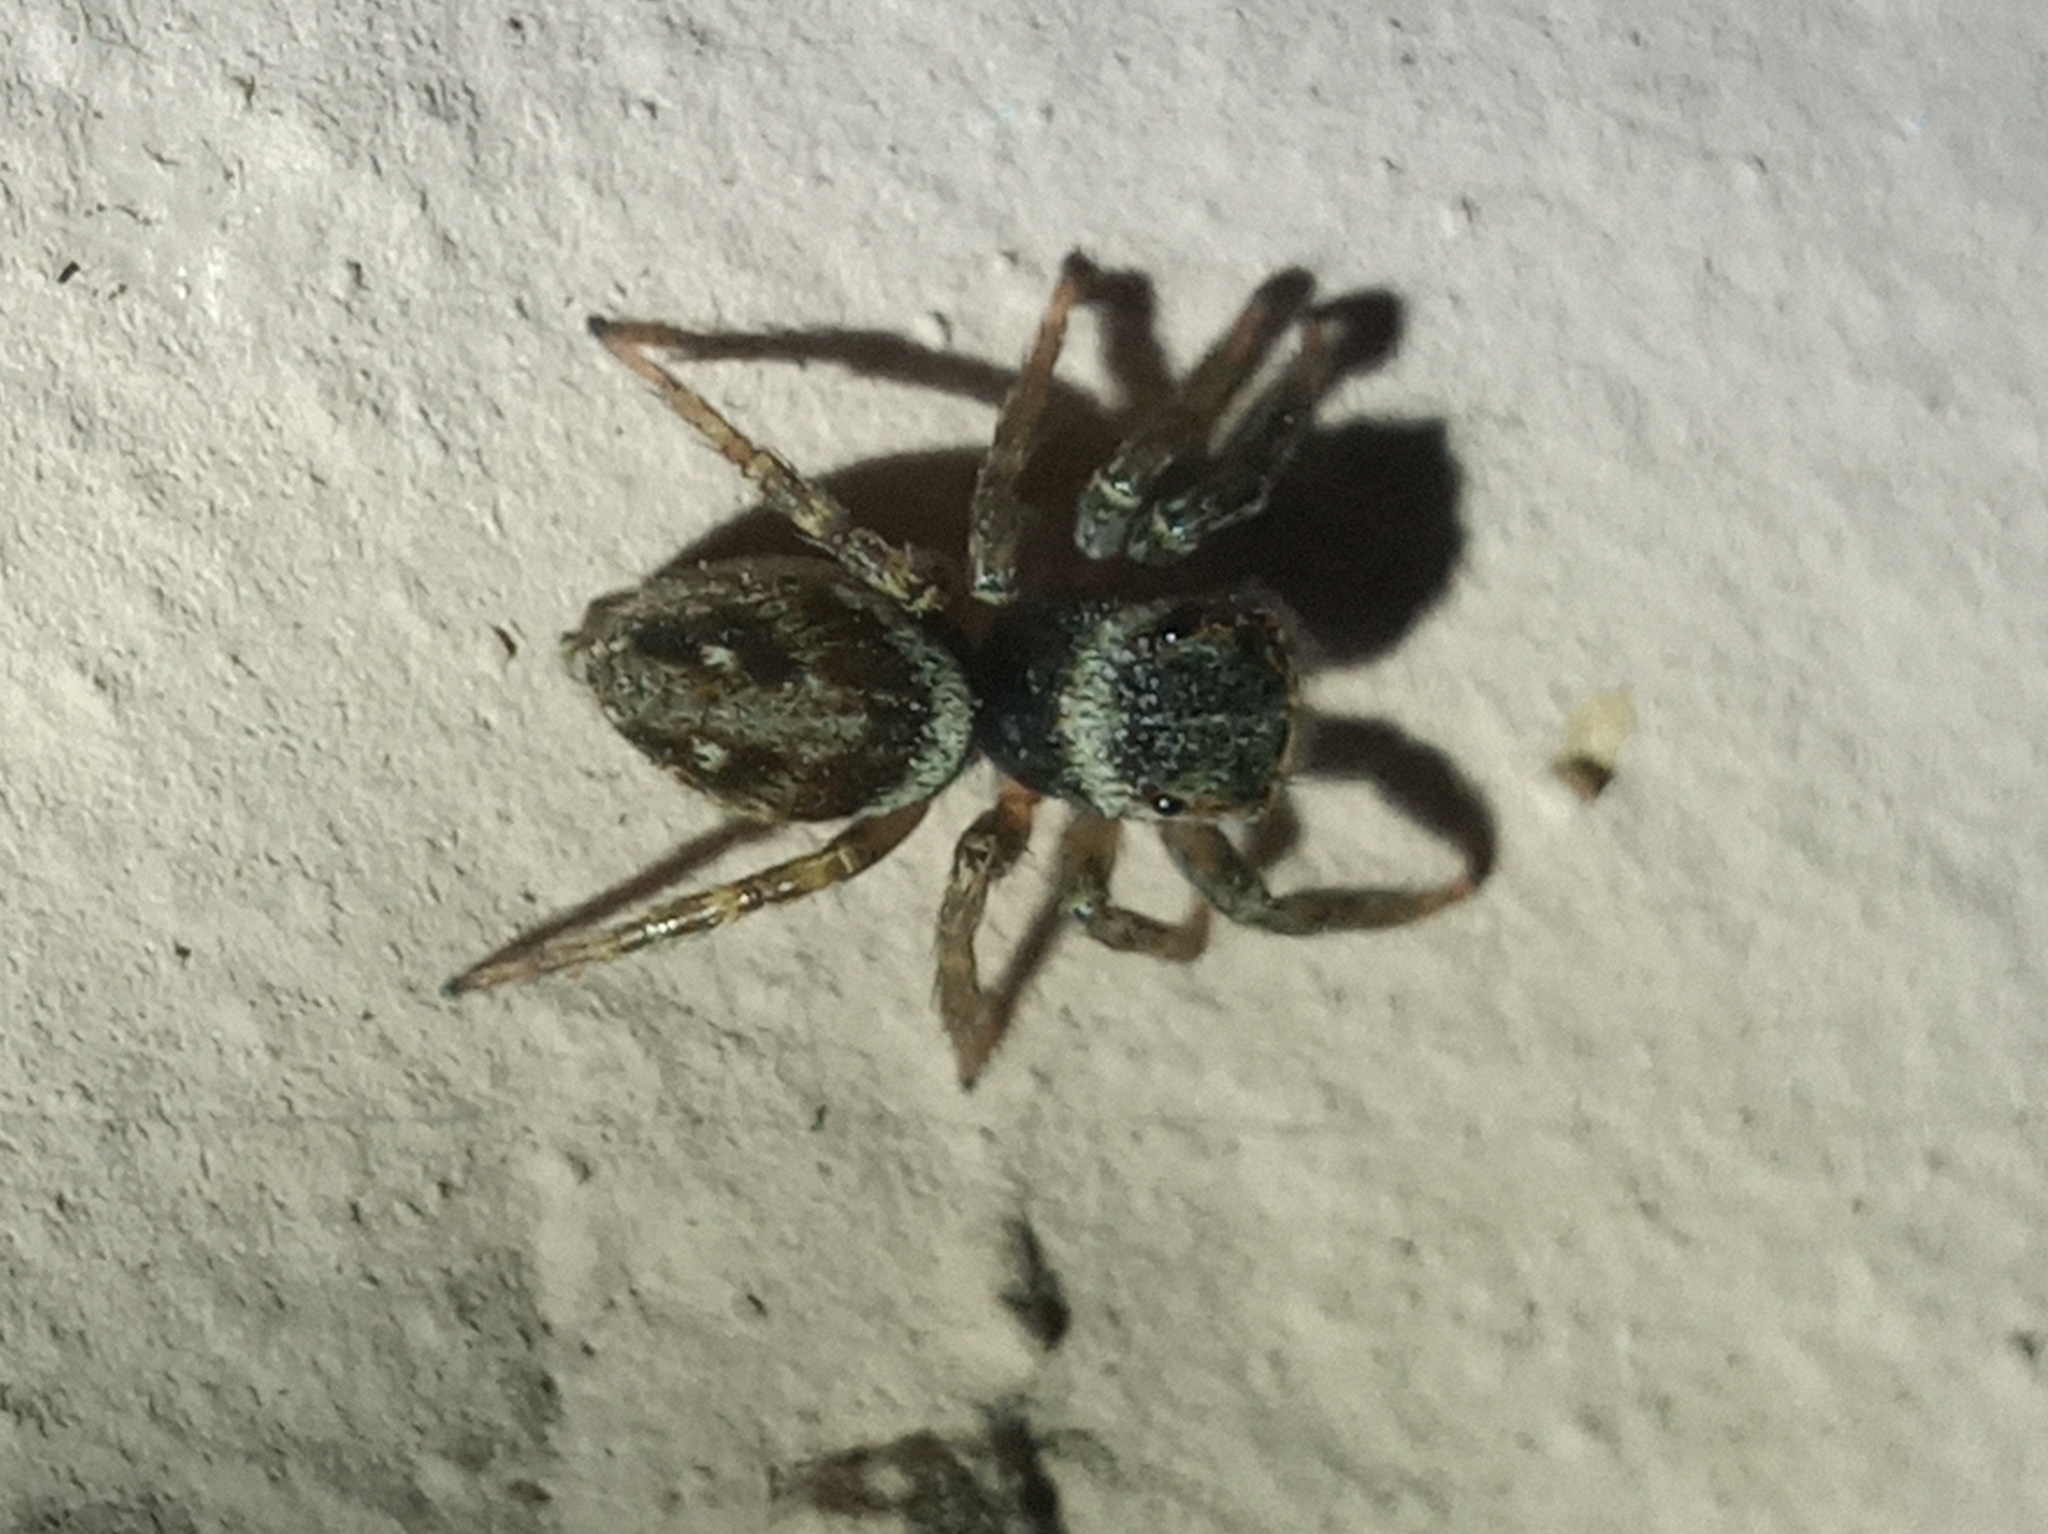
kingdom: Animalia
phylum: Arthropoda
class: Arachnida
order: Araneae
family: Salticidae
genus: Hasarius
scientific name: Hasarius adansoni
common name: Jumping spider
